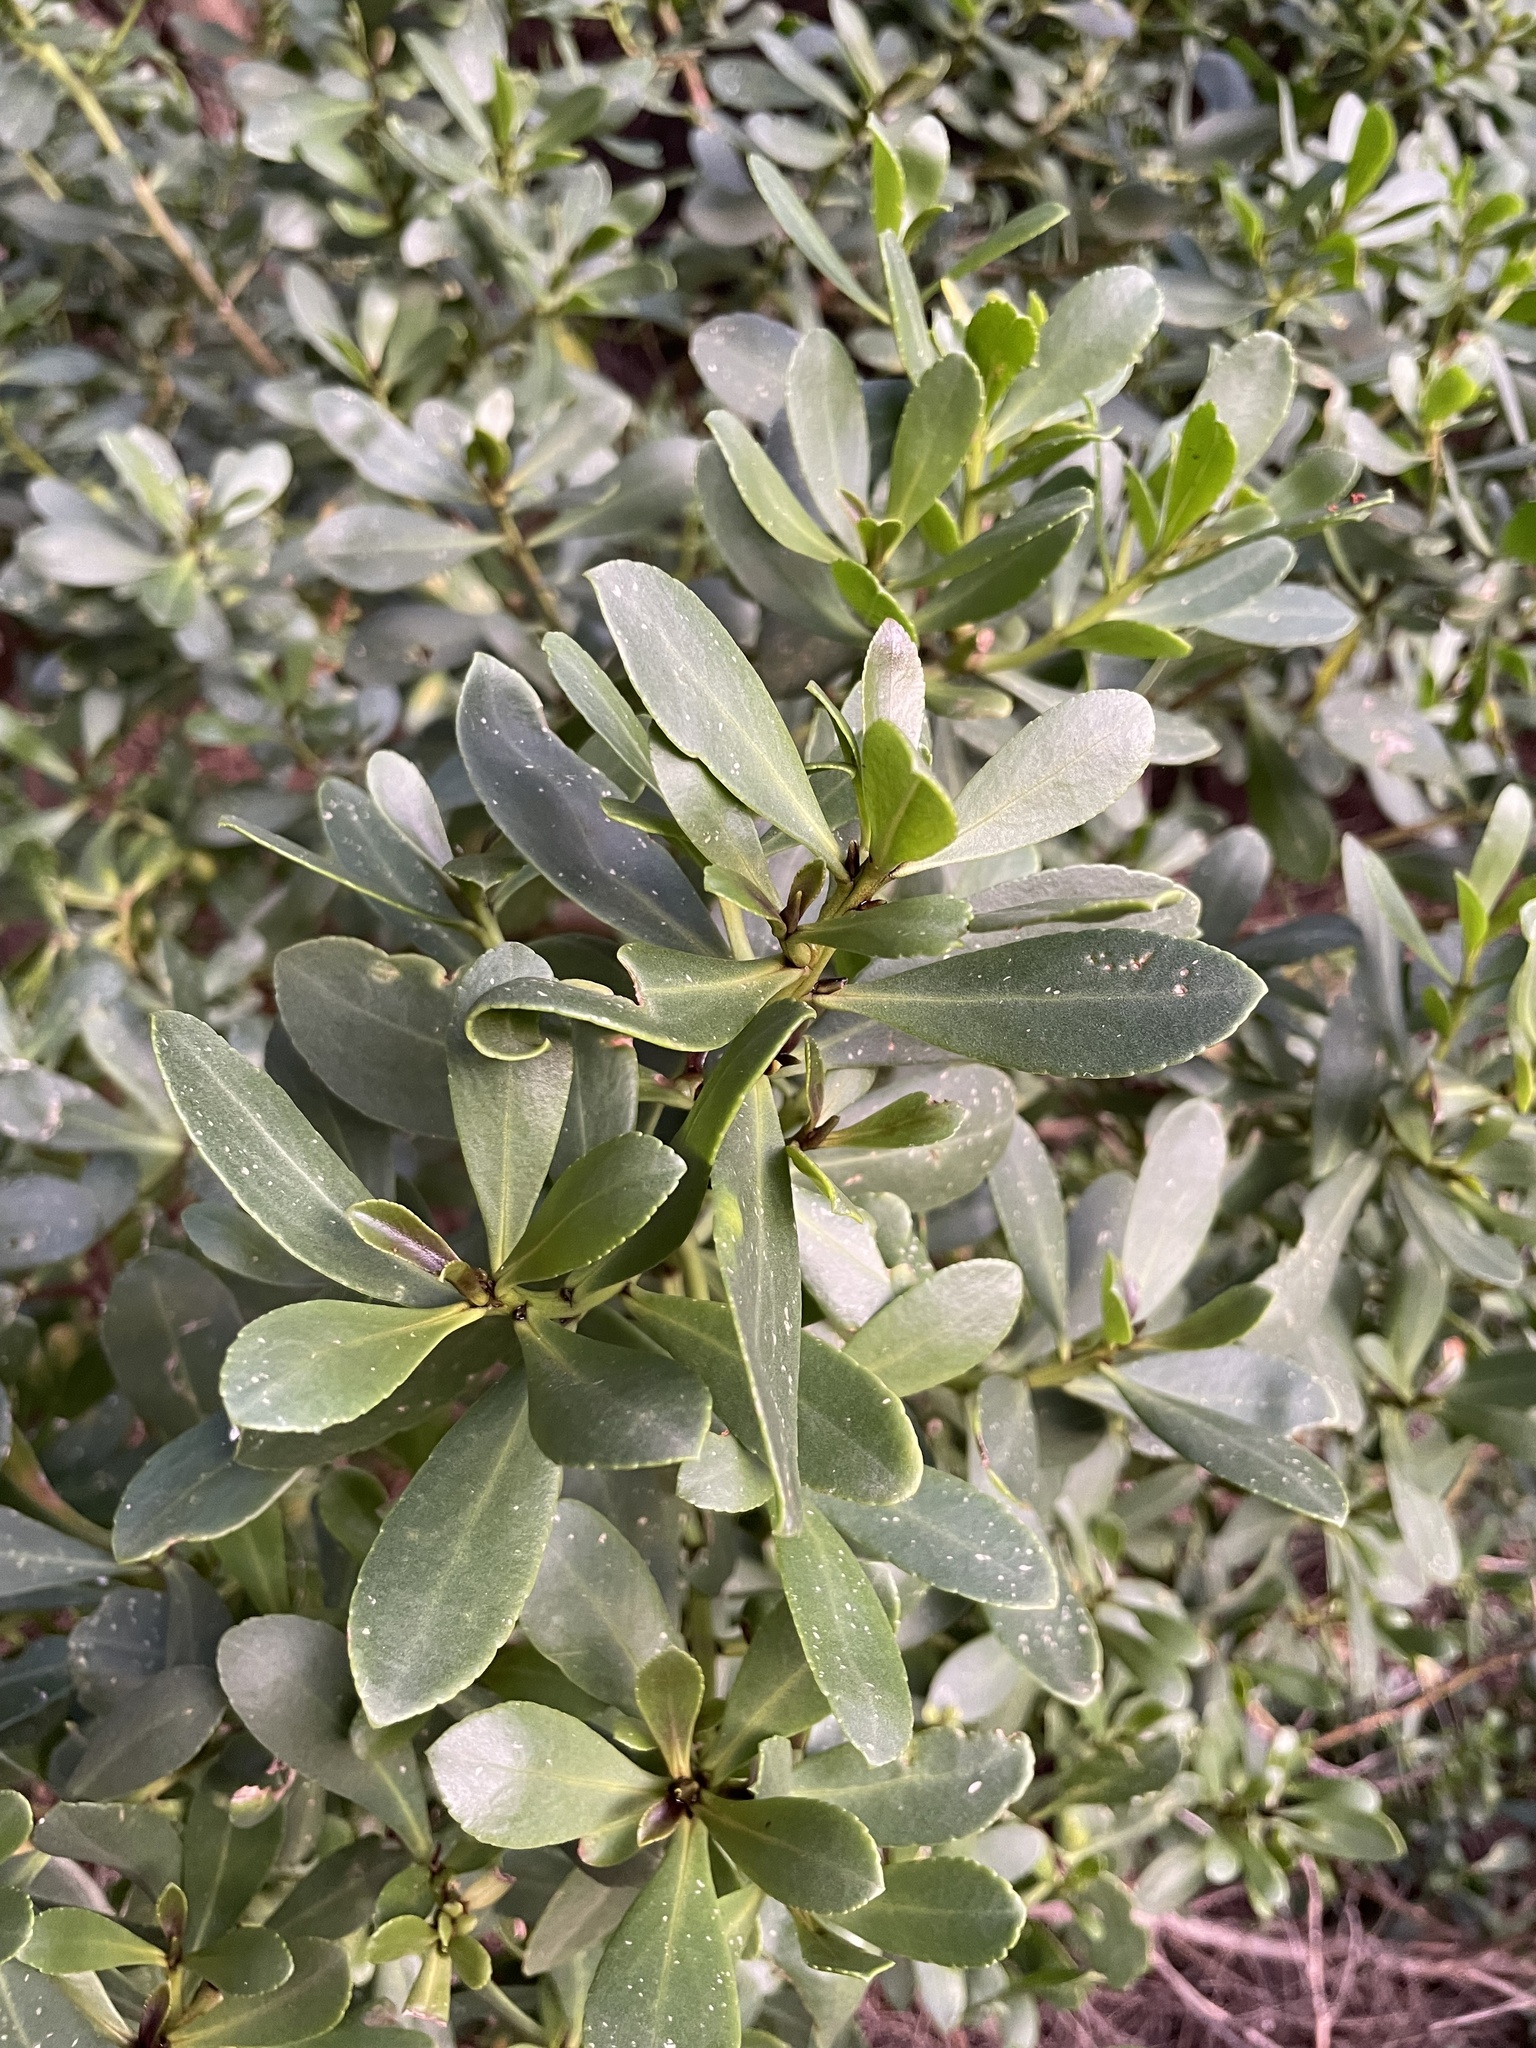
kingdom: Plantae
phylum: Tracheophyta
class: Magnoliopsida
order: Lamiales
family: Scrophulariaceae
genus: Myoporum
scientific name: Myoporum insulare
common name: Common boobialla
